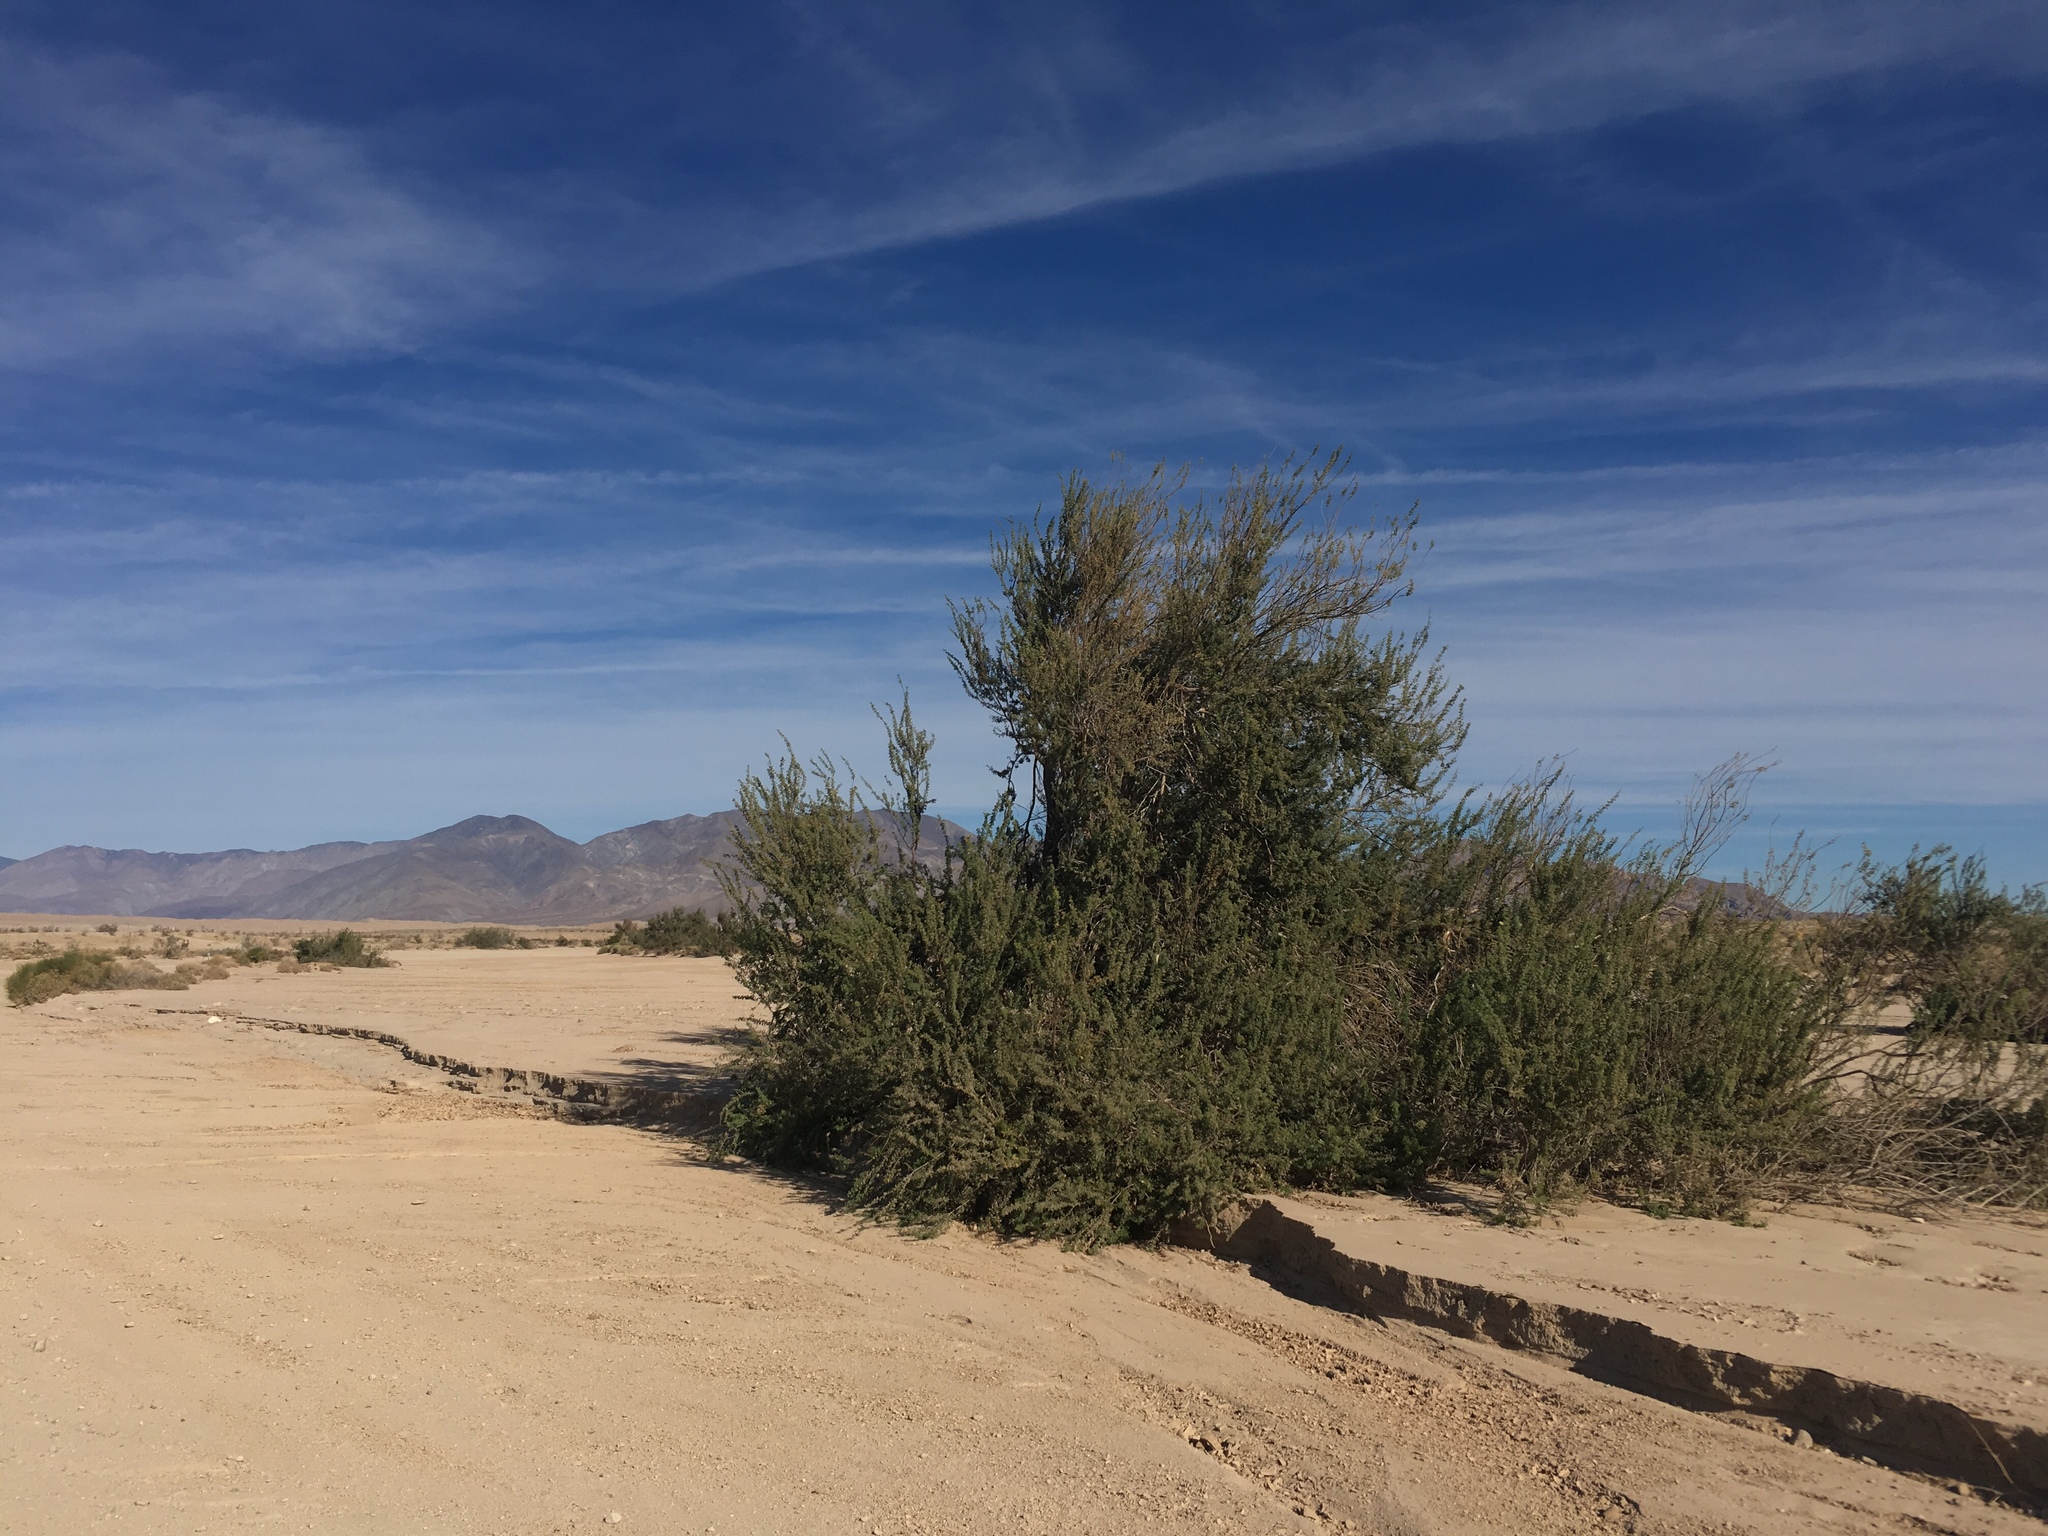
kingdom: Plantae
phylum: Tracheophyta
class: Magnoliopsida
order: Fabales
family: Fabaceae
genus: Senegalia
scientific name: Senegalia greggii
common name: Texas-mimosa
